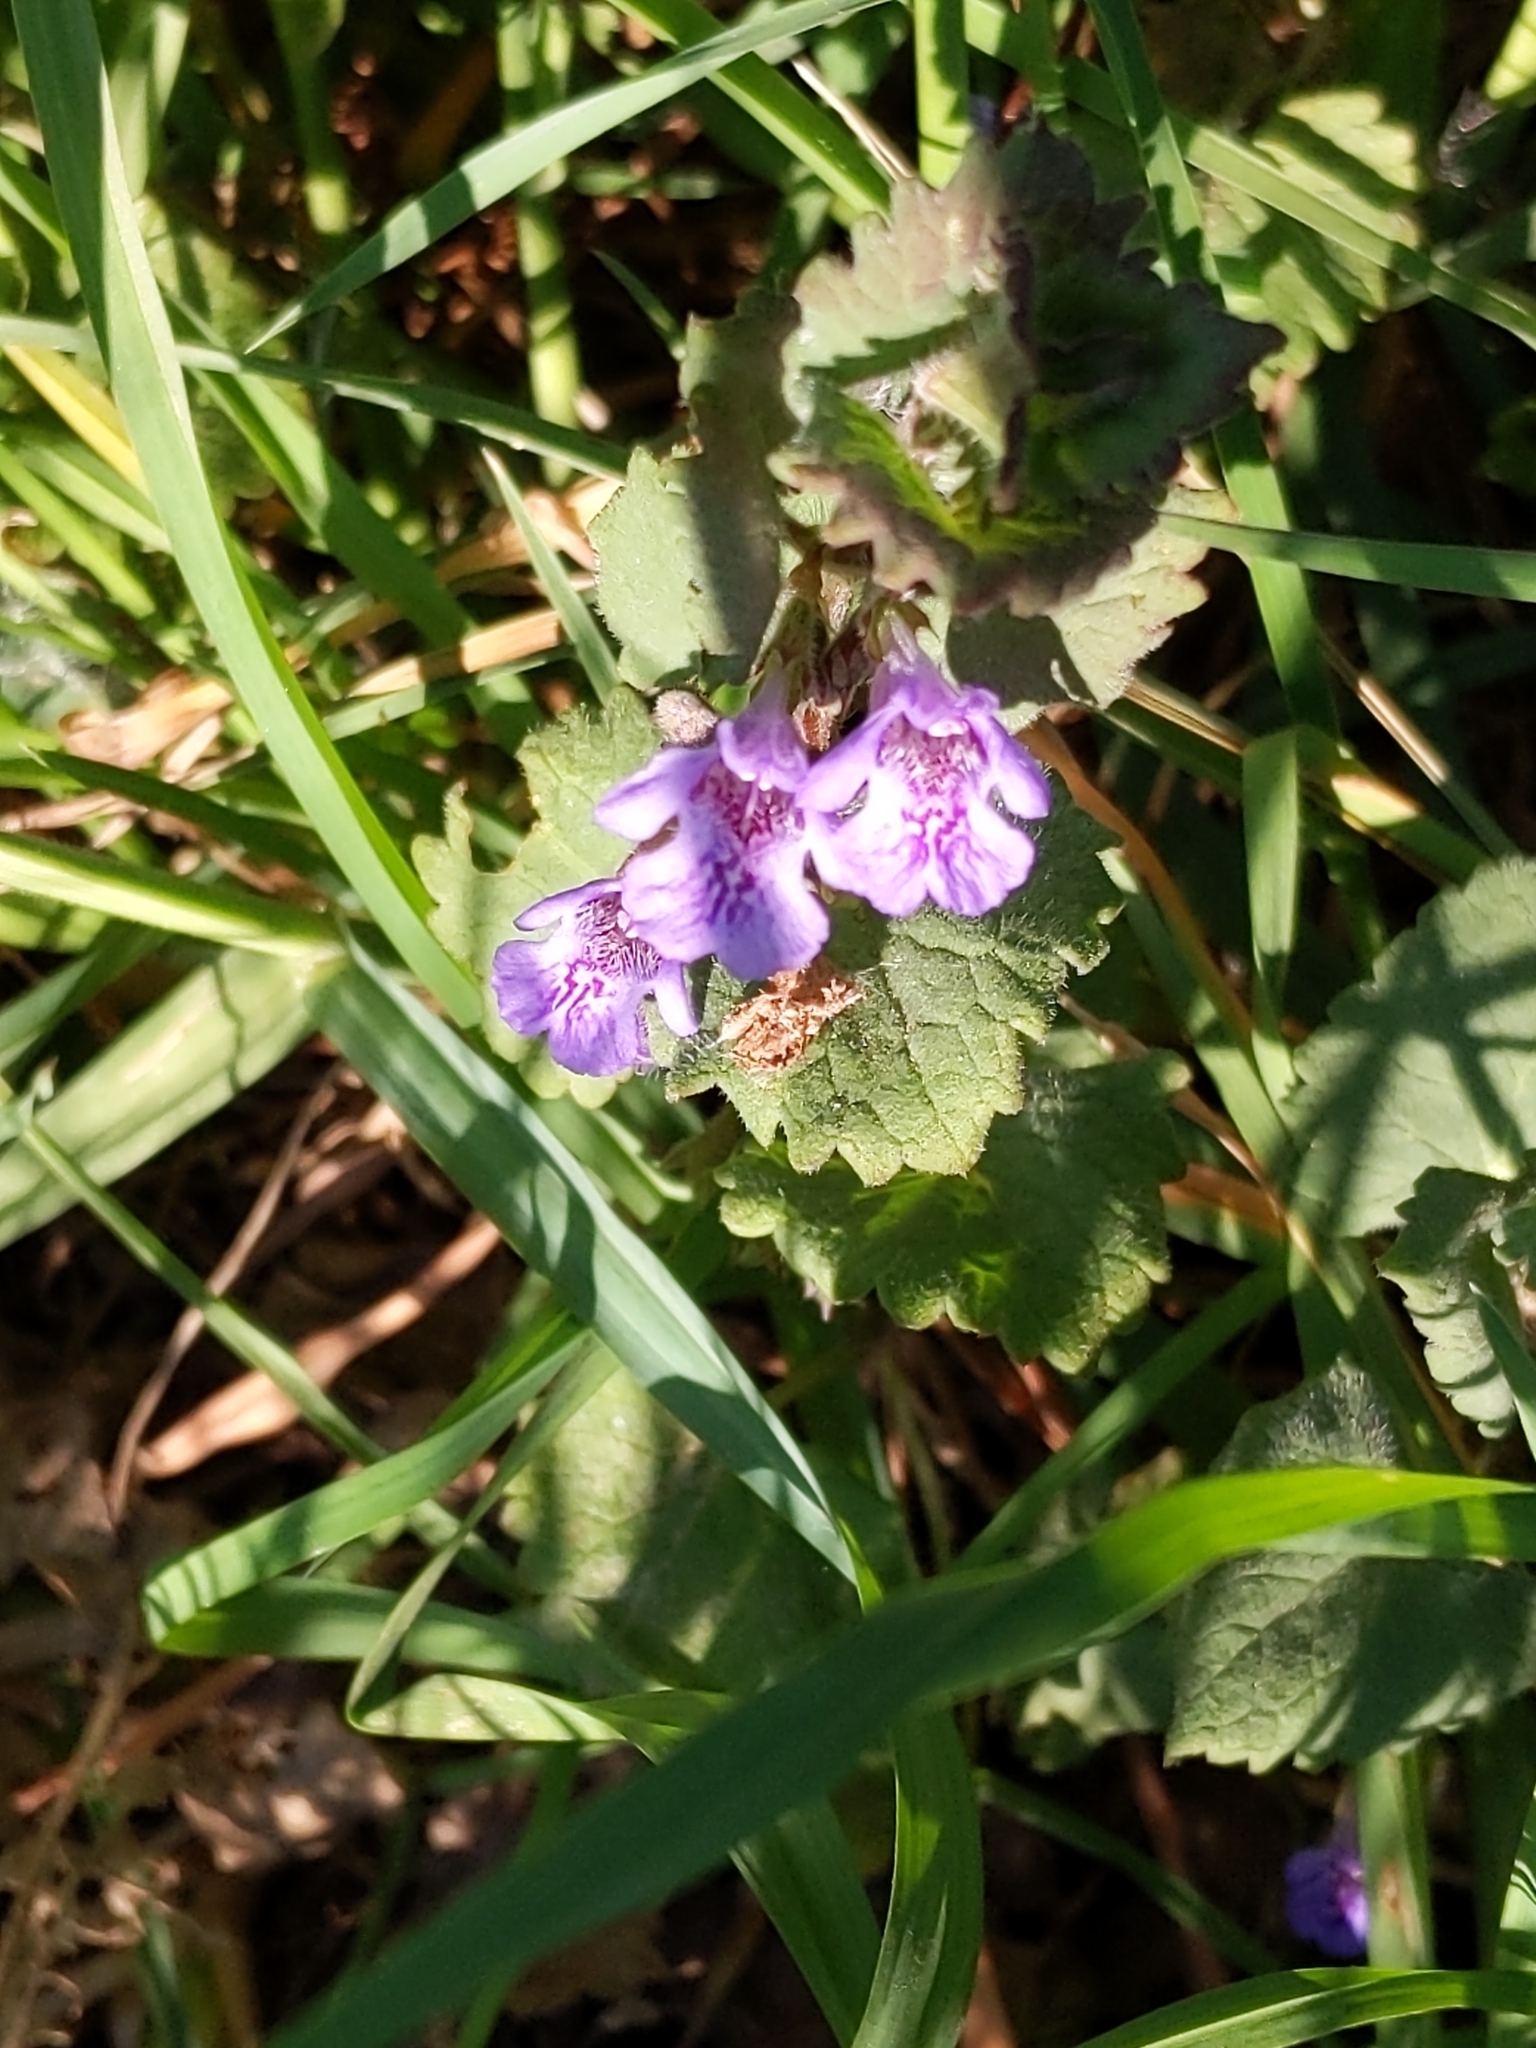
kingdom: Plantae
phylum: Tracheophyta
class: Magnoliopsida
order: Lamiales
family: Lamiaceae
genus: Glechoma
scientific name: Glechoma hederacea
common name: Ground ivy
